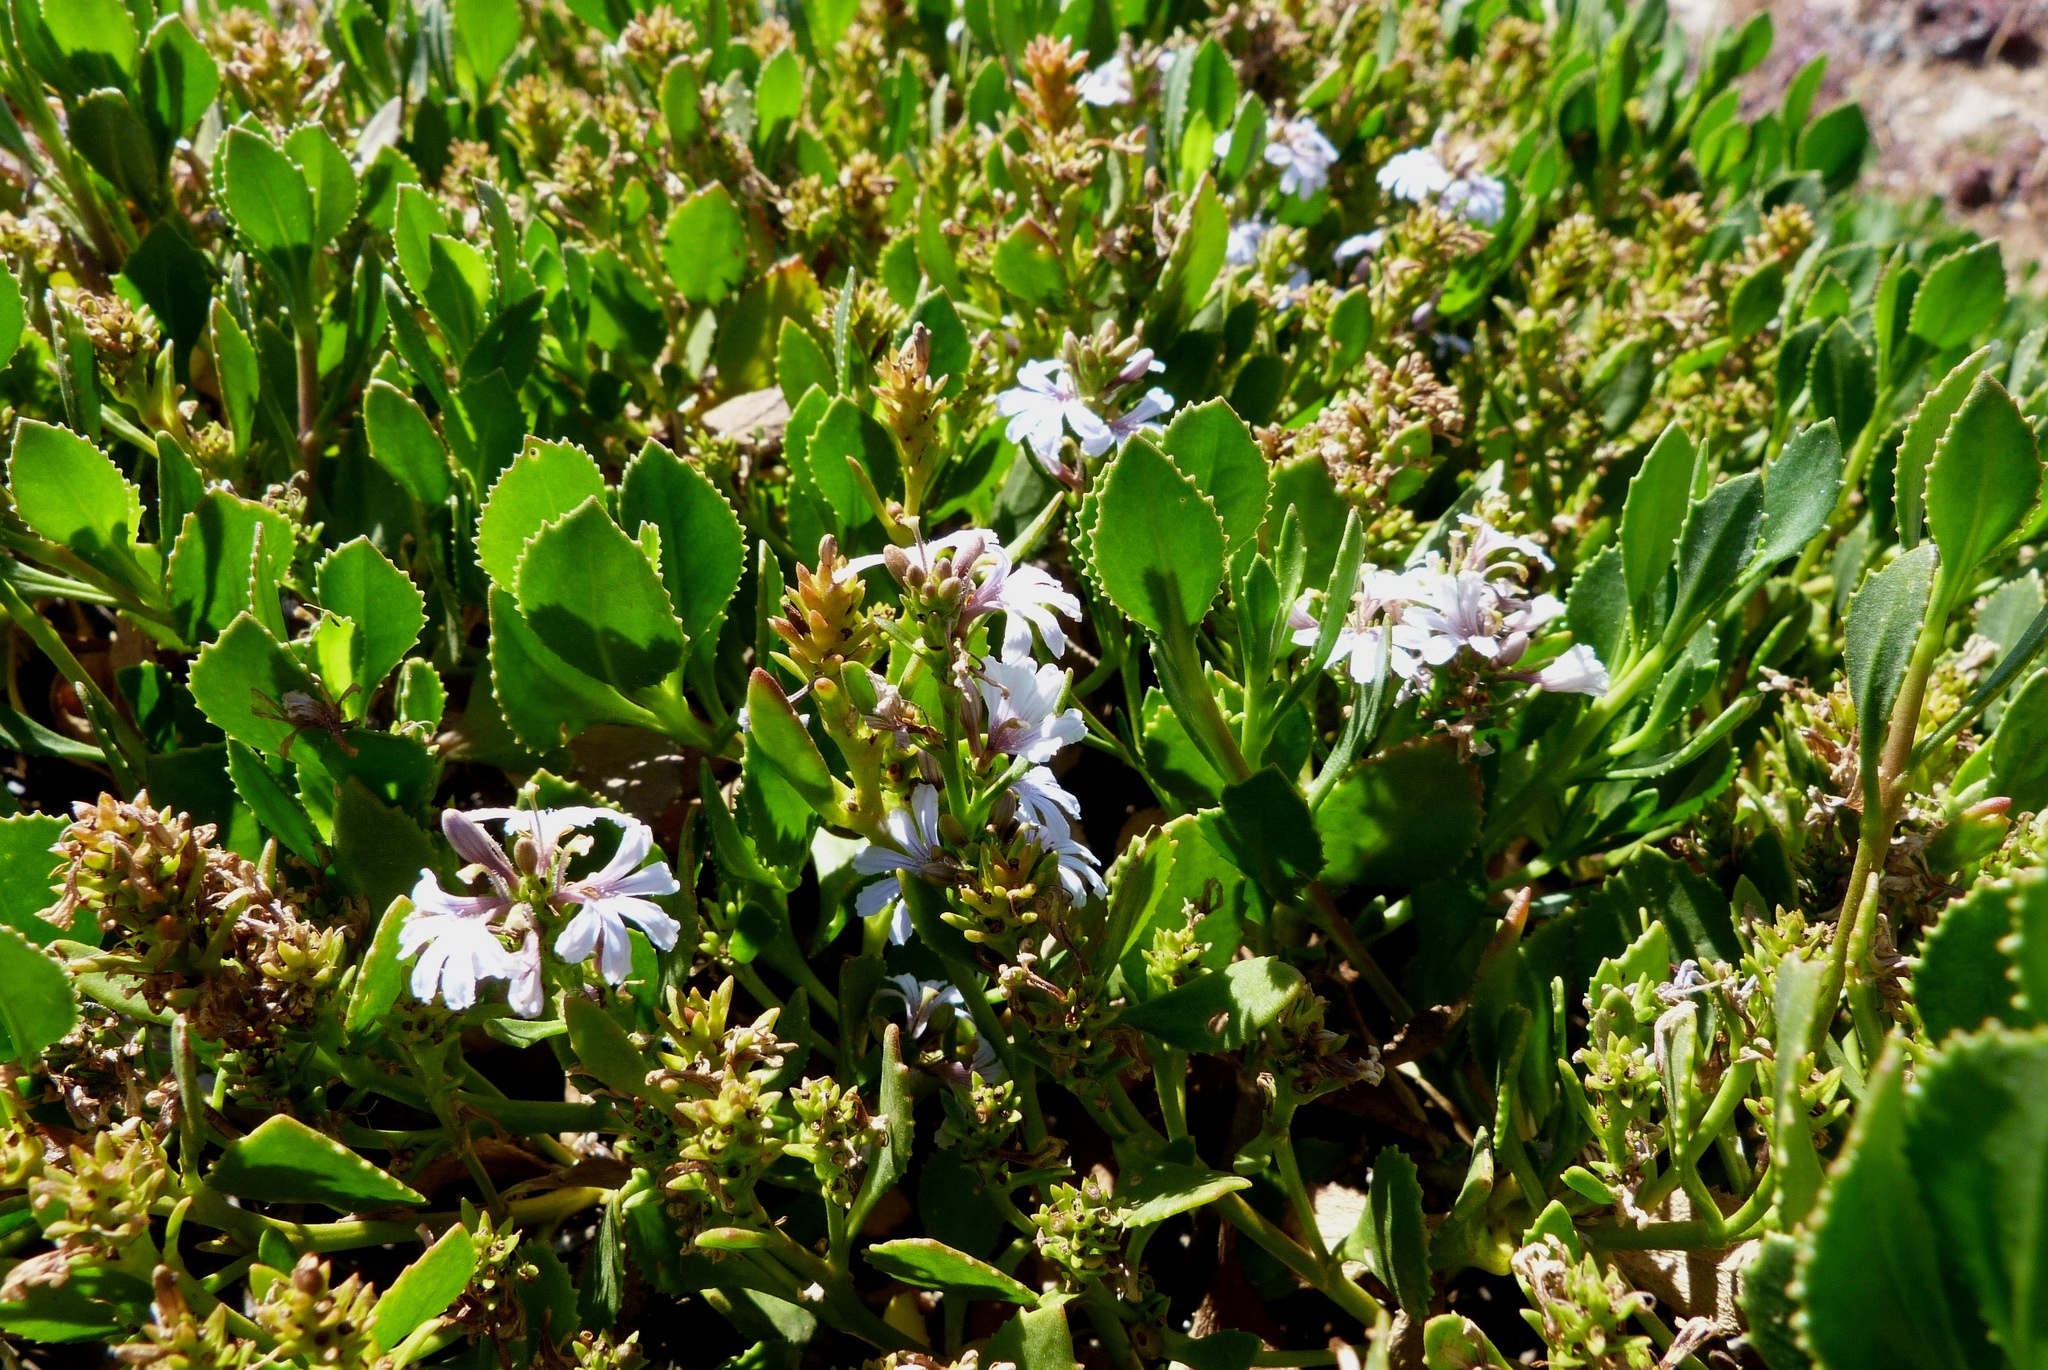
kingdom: Plantae
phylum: Tracheophyta
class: Magnoliopsida
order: Asterales
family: Goodeniaceae
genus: Scaevola
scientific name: Scaevola crassifolia
